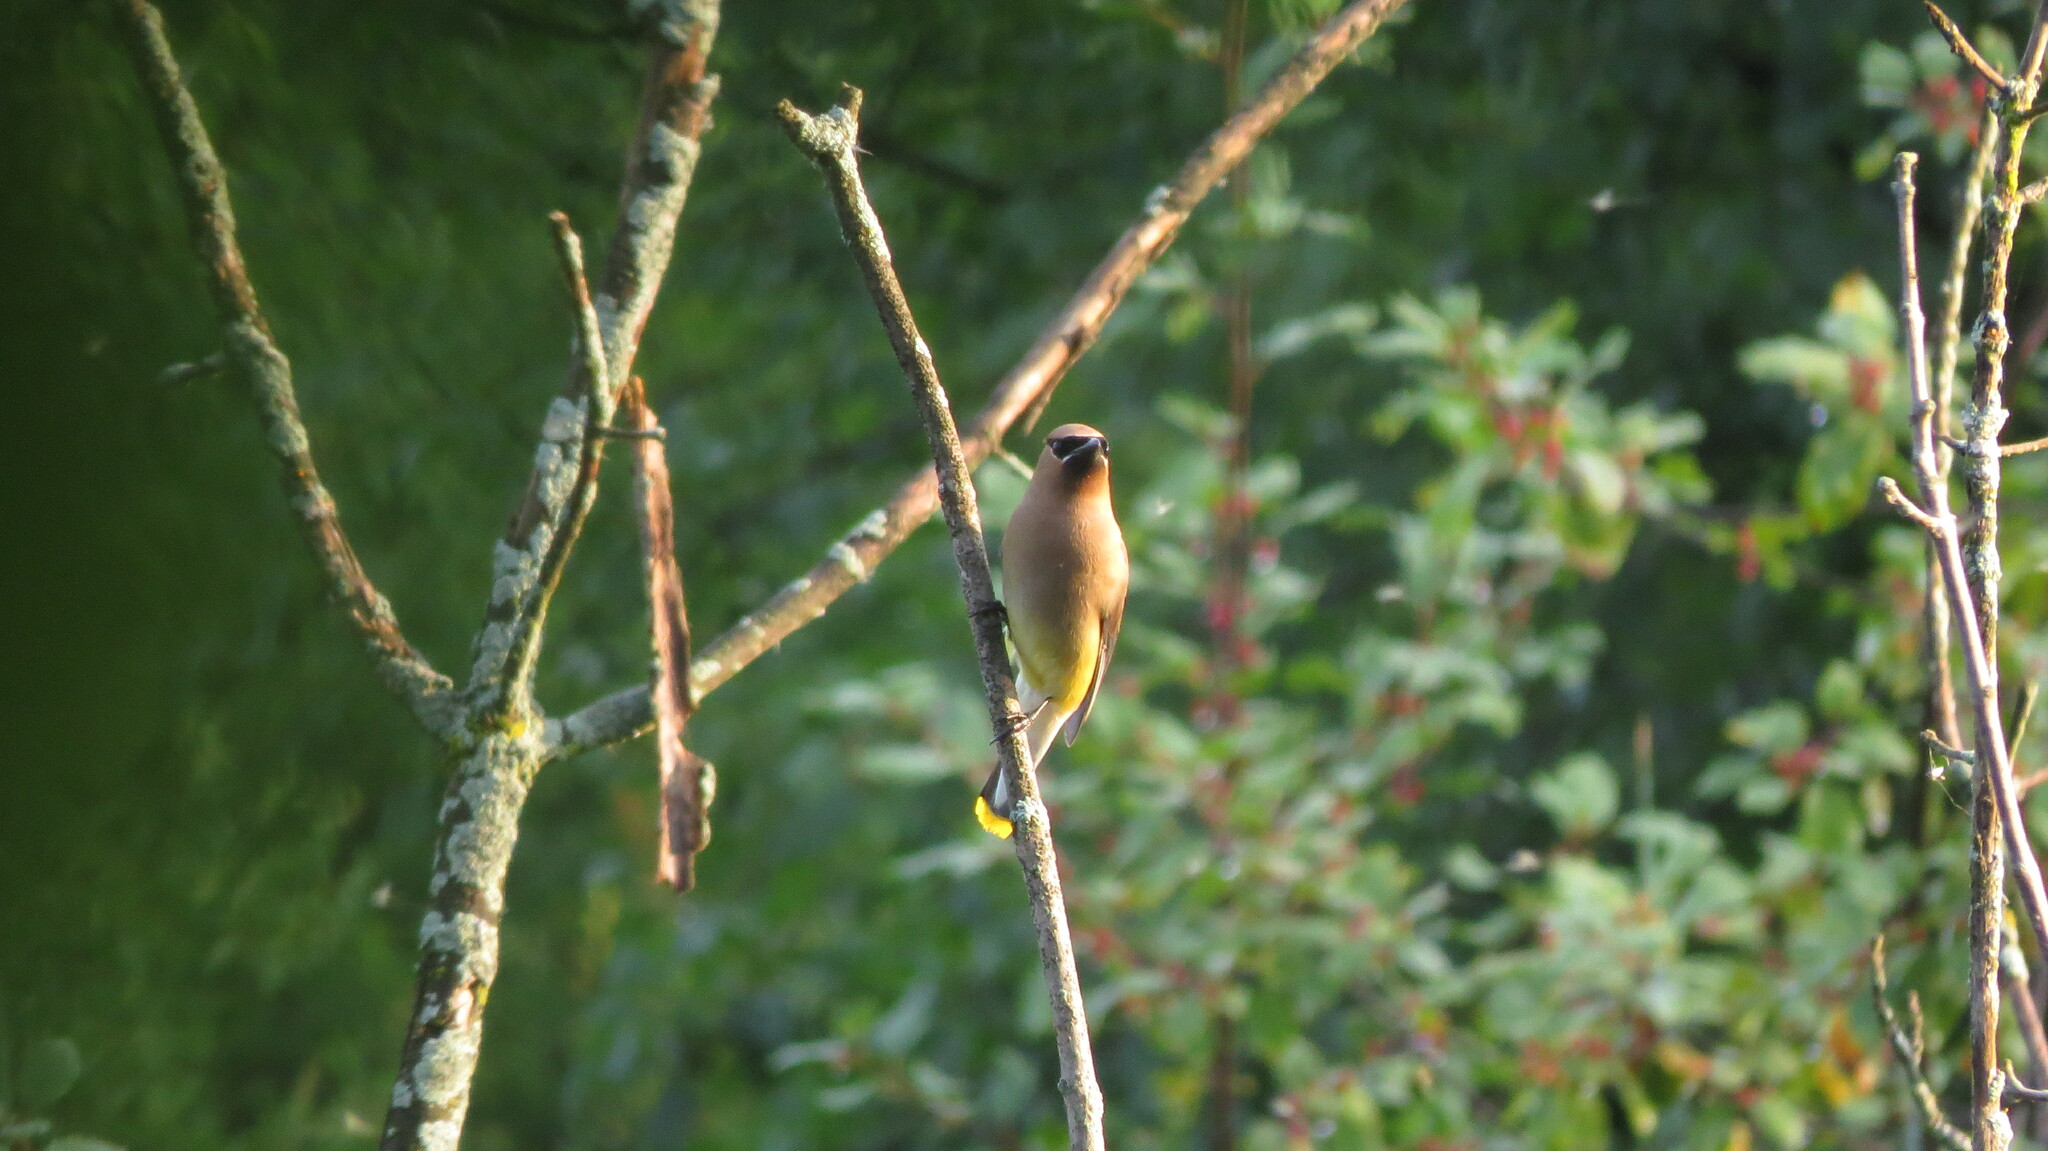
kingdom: Animalia
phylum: Chordata
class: Aves
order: Passeriformes
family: Bombycillidae
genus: Bombycilla
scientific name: Bombycilla cedrorum
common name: Cedar waxwing
